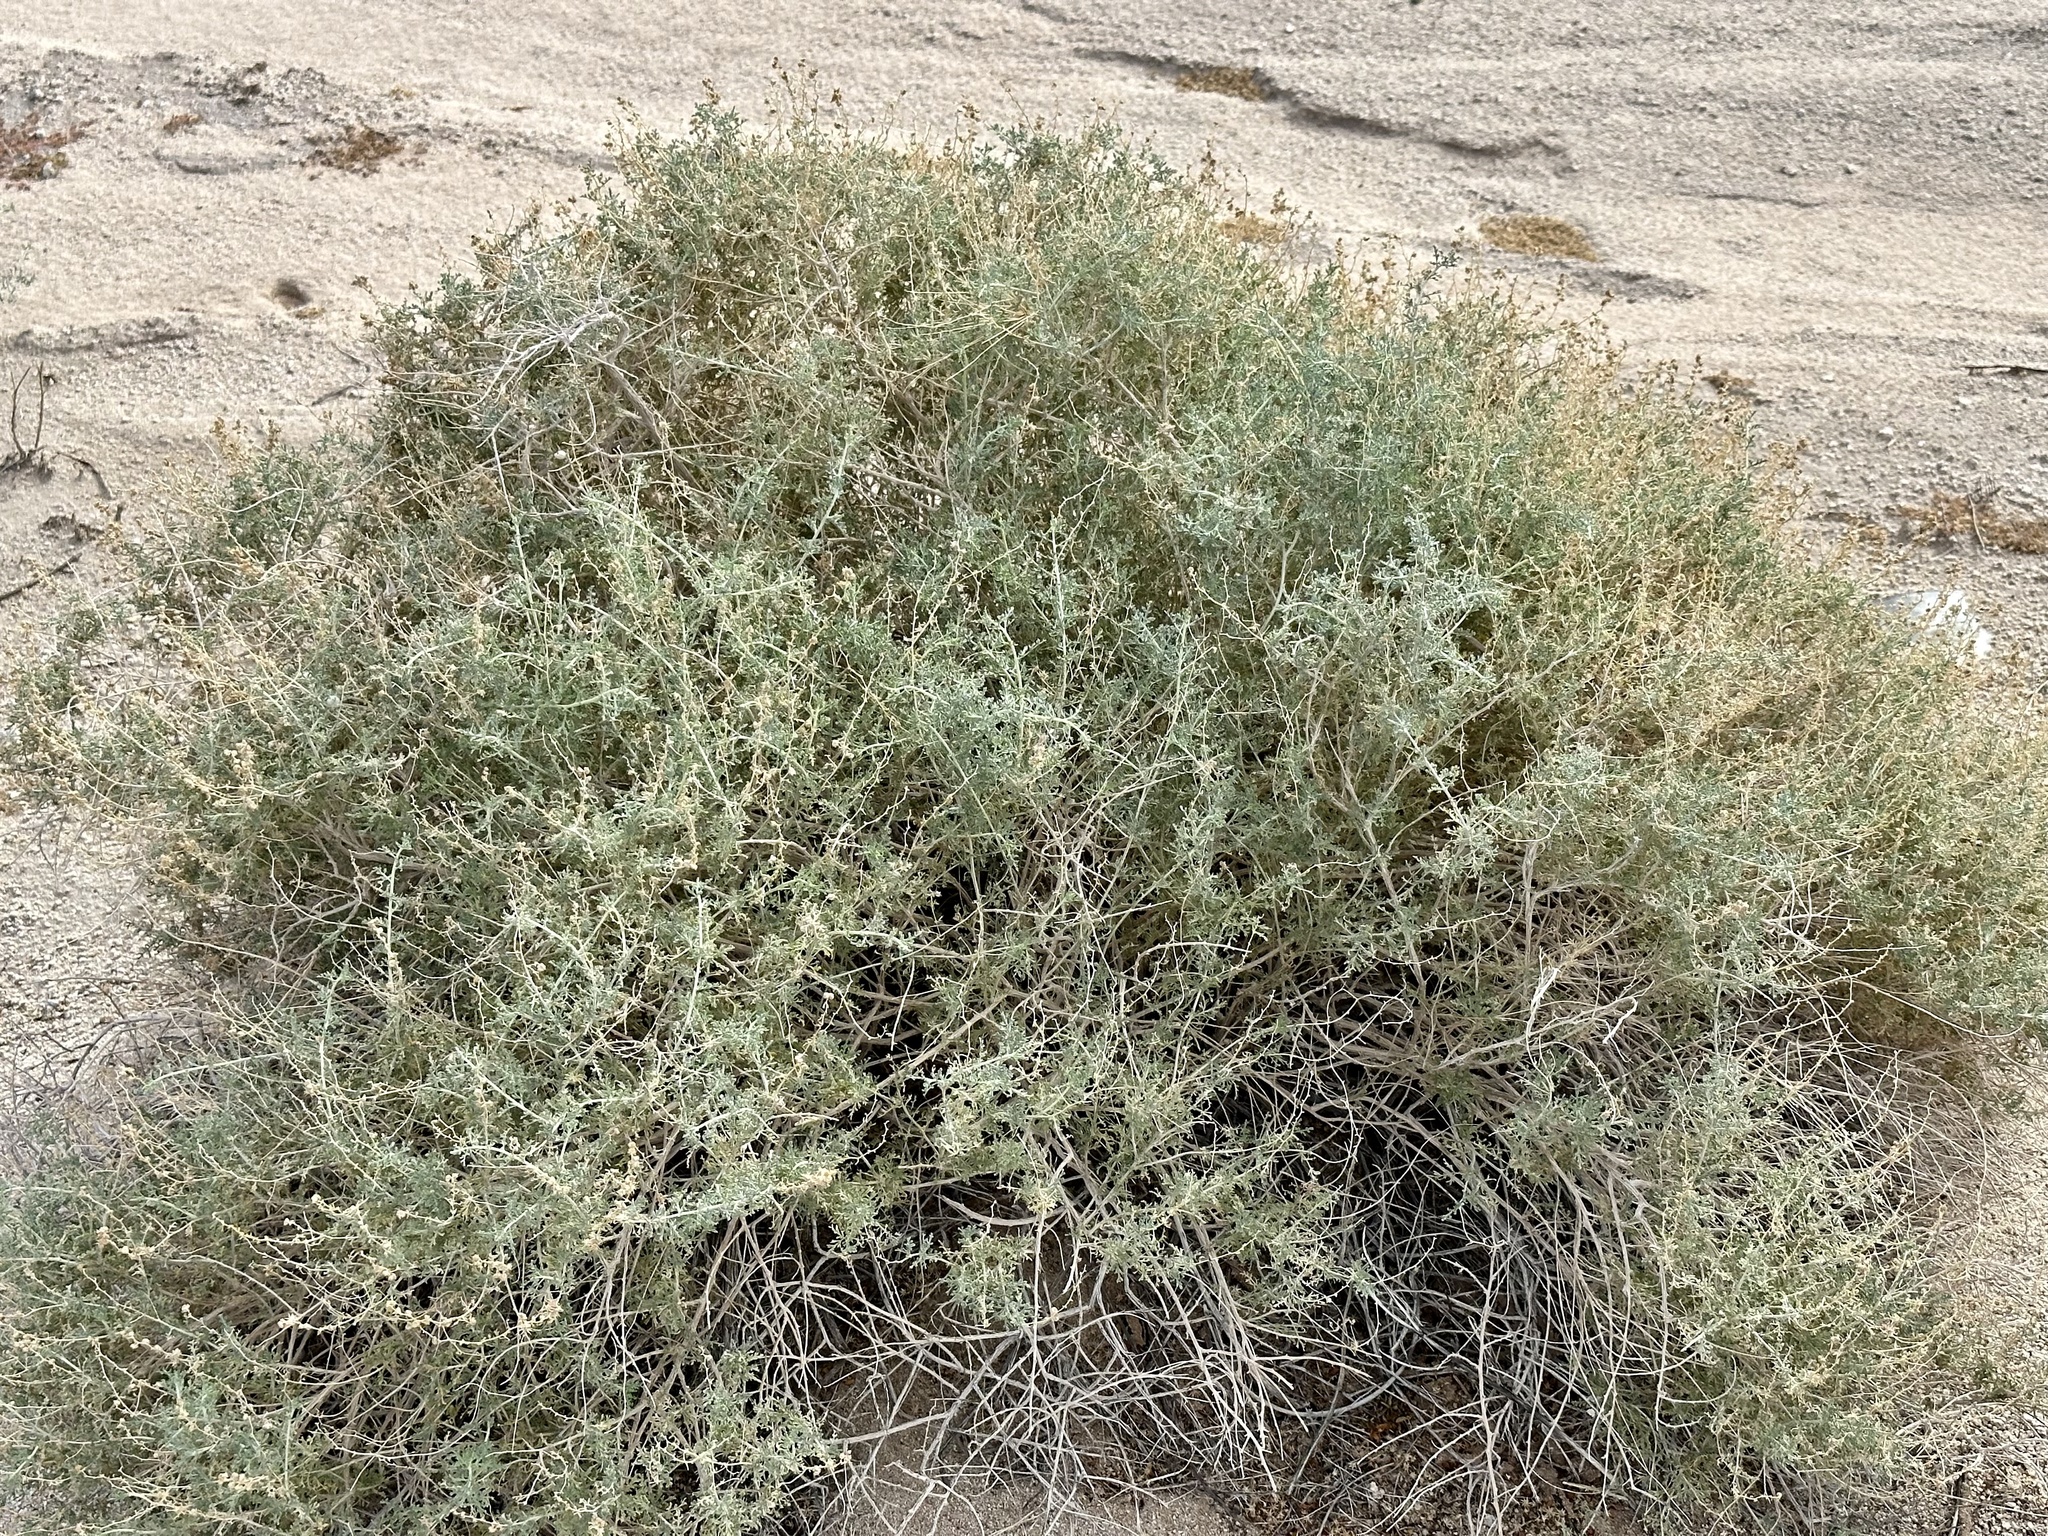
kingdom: Plantae
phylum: Tracheophyta
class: Magnoliopsida
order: Asterales
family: Asteraceae
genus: Ambrosia
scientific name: Ambrosia dumosa
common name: Bur-sage
